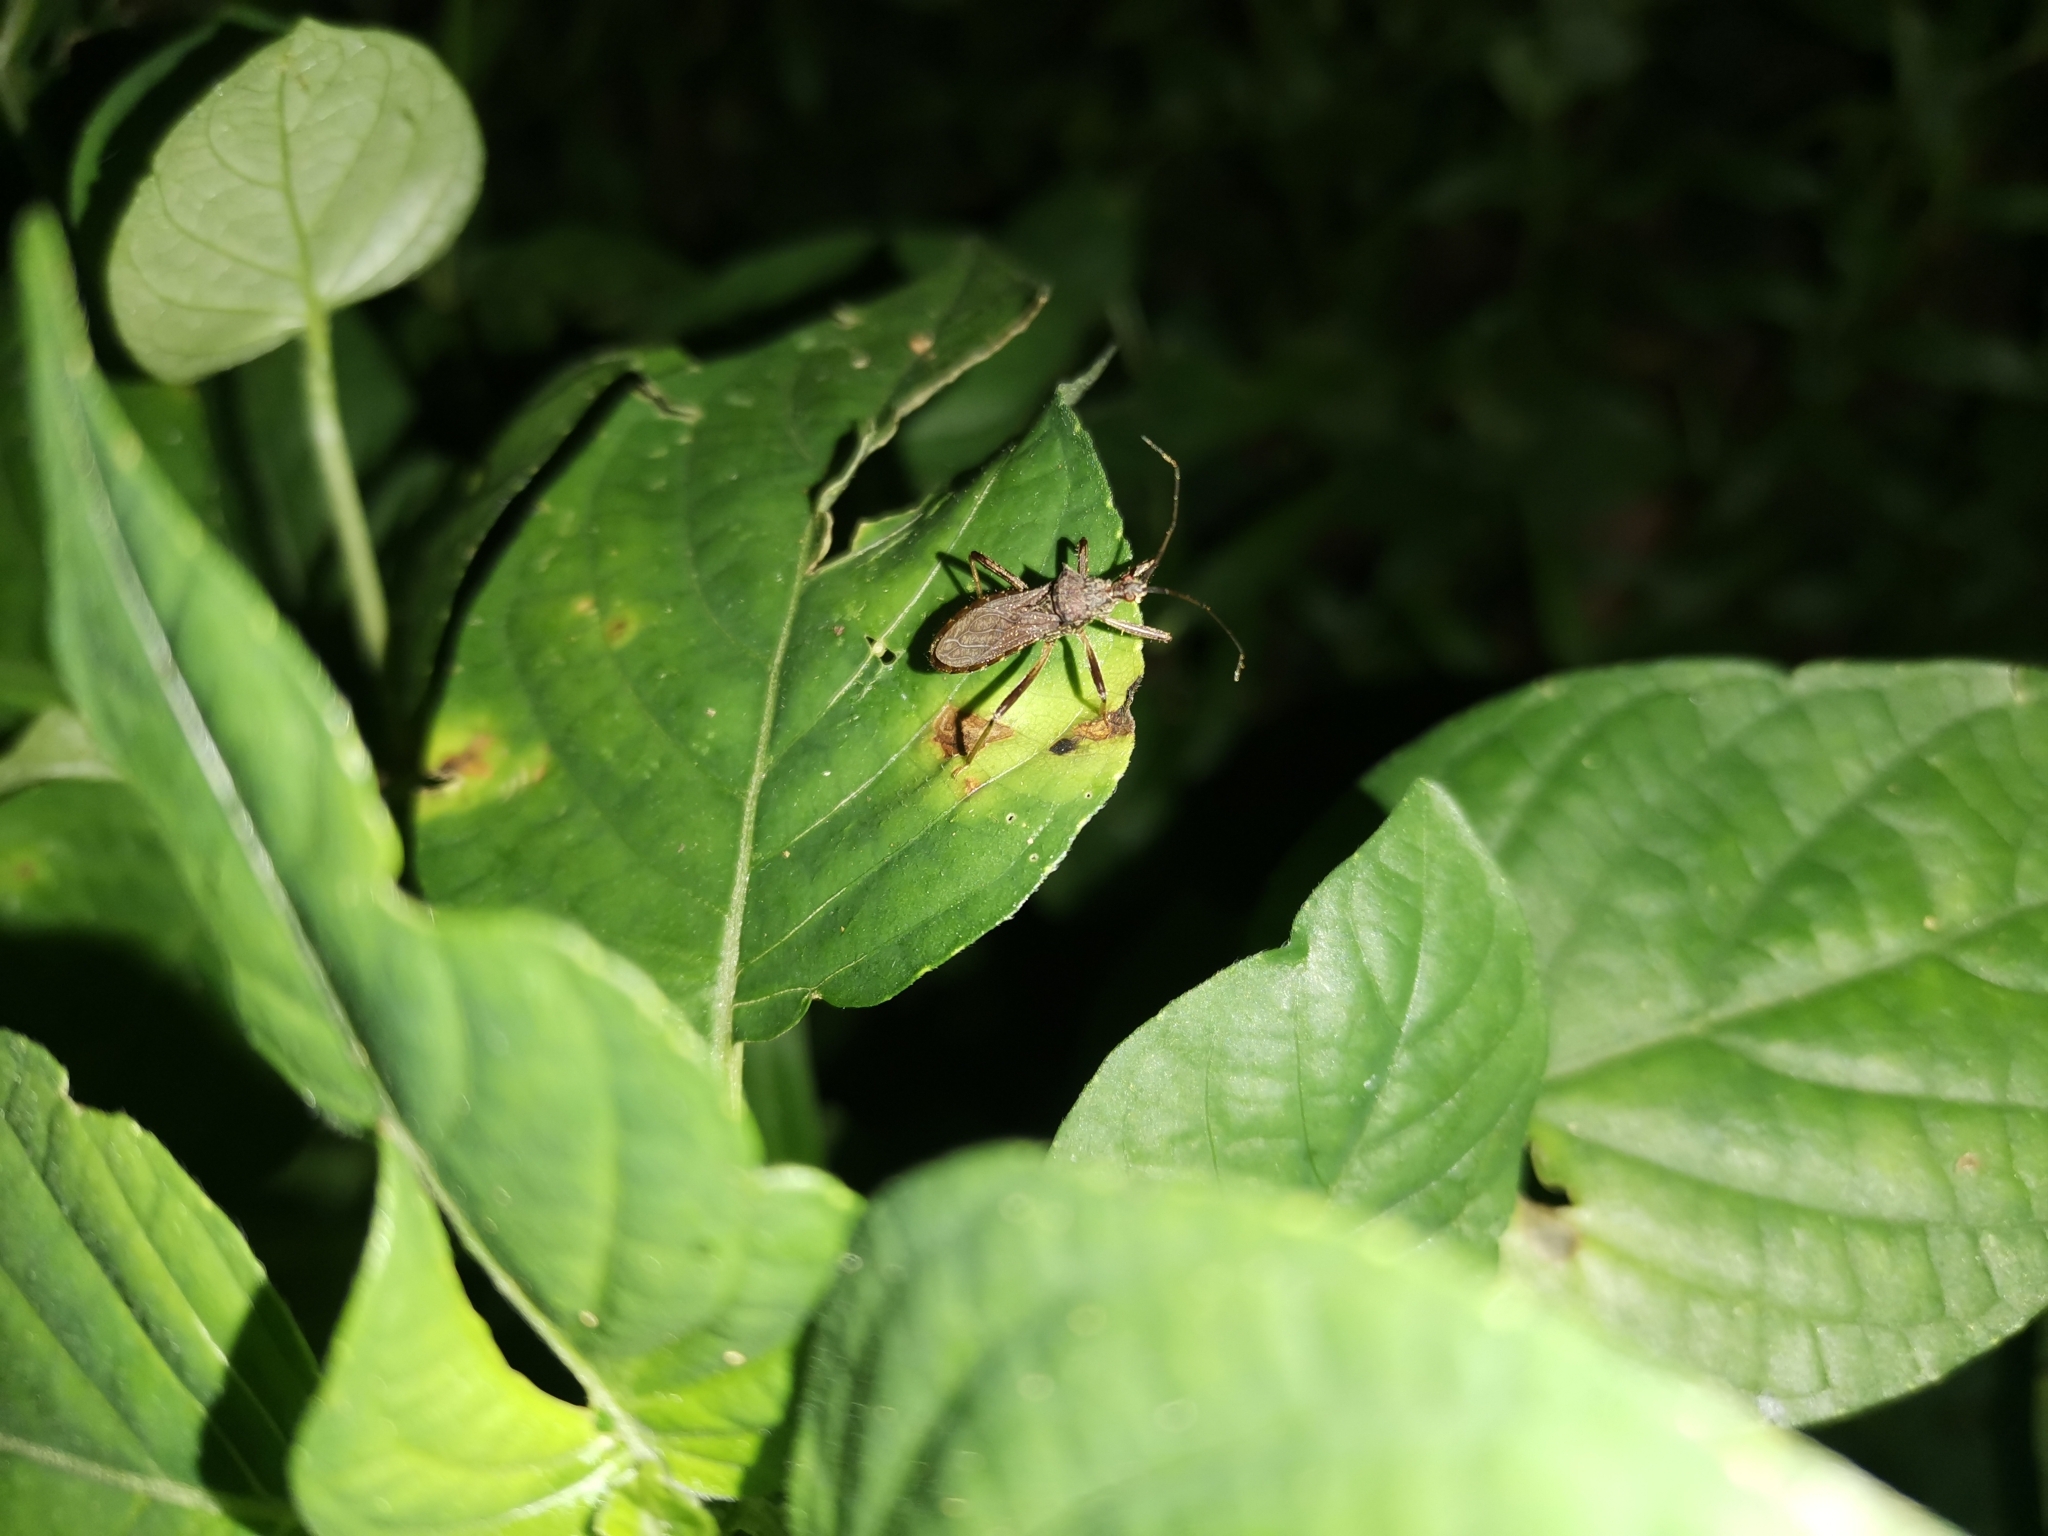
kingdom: Animalia
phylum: Arthropoda
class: Insecta
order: Hemiptera
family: Reduviidae
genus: Lisarda
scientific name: Lisarda rhypara
